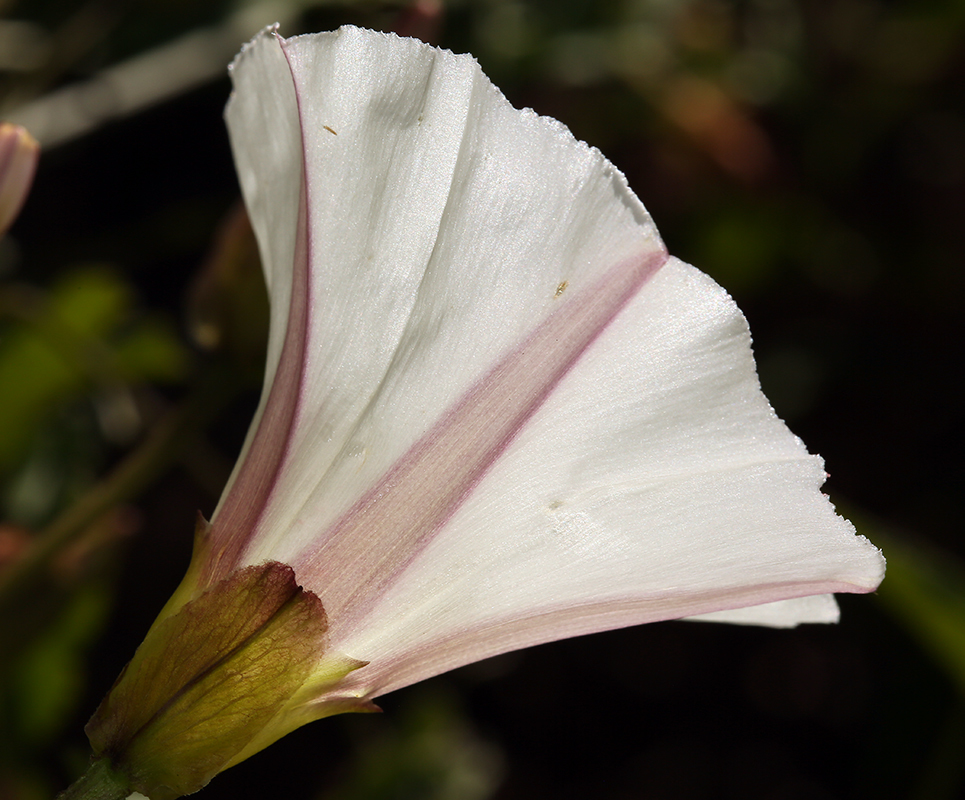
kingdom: Plantae
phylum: Tracheophyta
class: Magnoliopsida
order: Solanales
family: Convolvulaceae
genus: Calystegia
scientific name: Calystegia macrostegia
